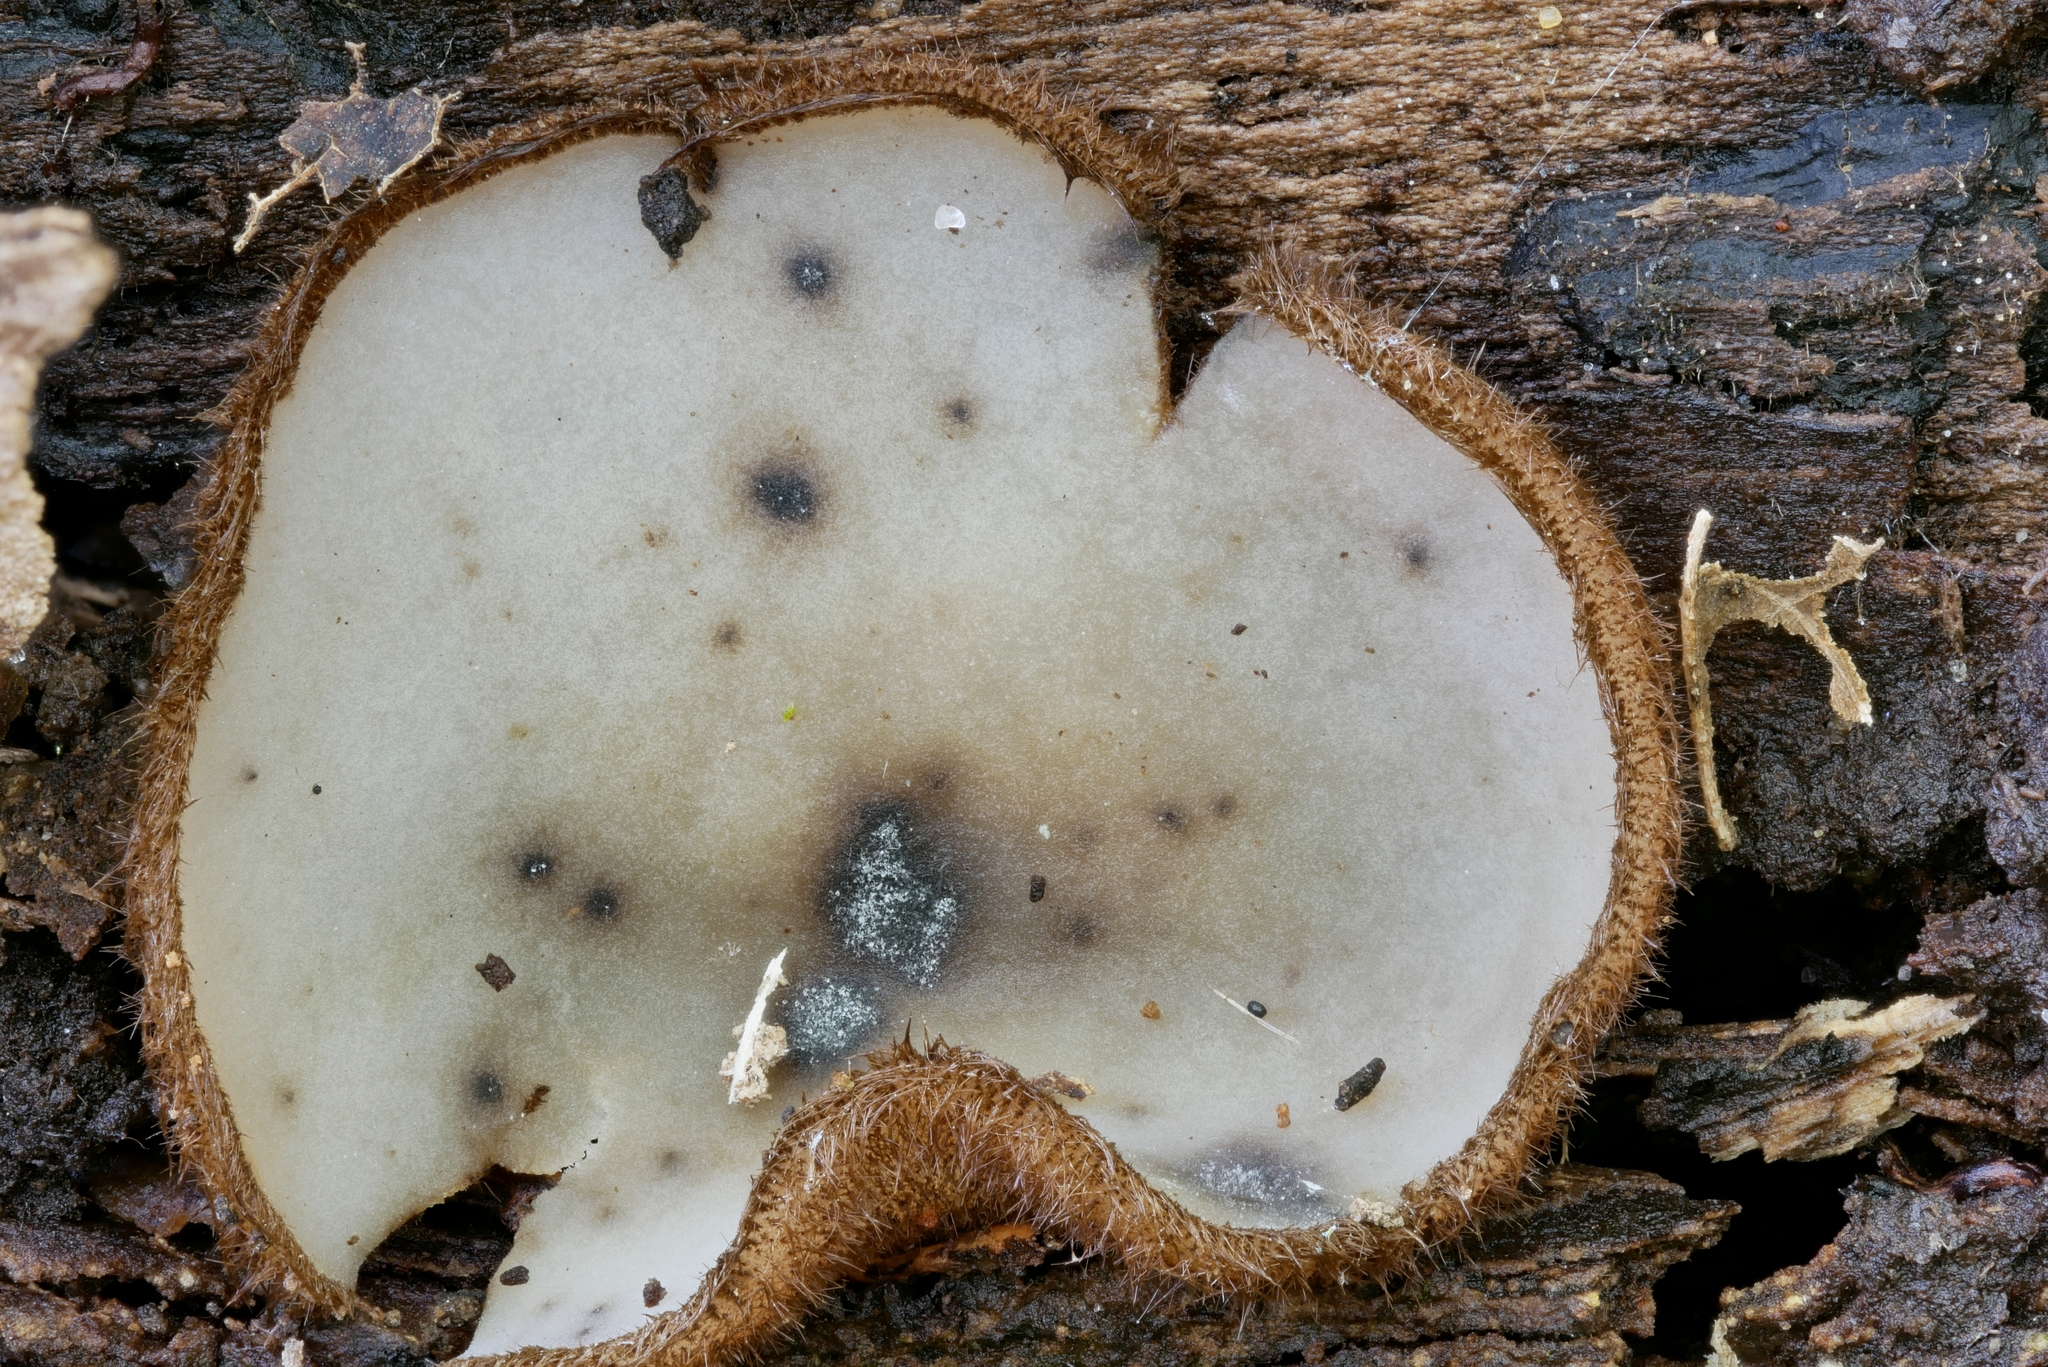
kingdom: Fungi
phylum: Ascomycota
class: Pezizomycetes
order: Pezizales
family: Pyronemataceae
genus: Humaria
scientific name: Humaria hemisphaerica
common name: Glazed cup
